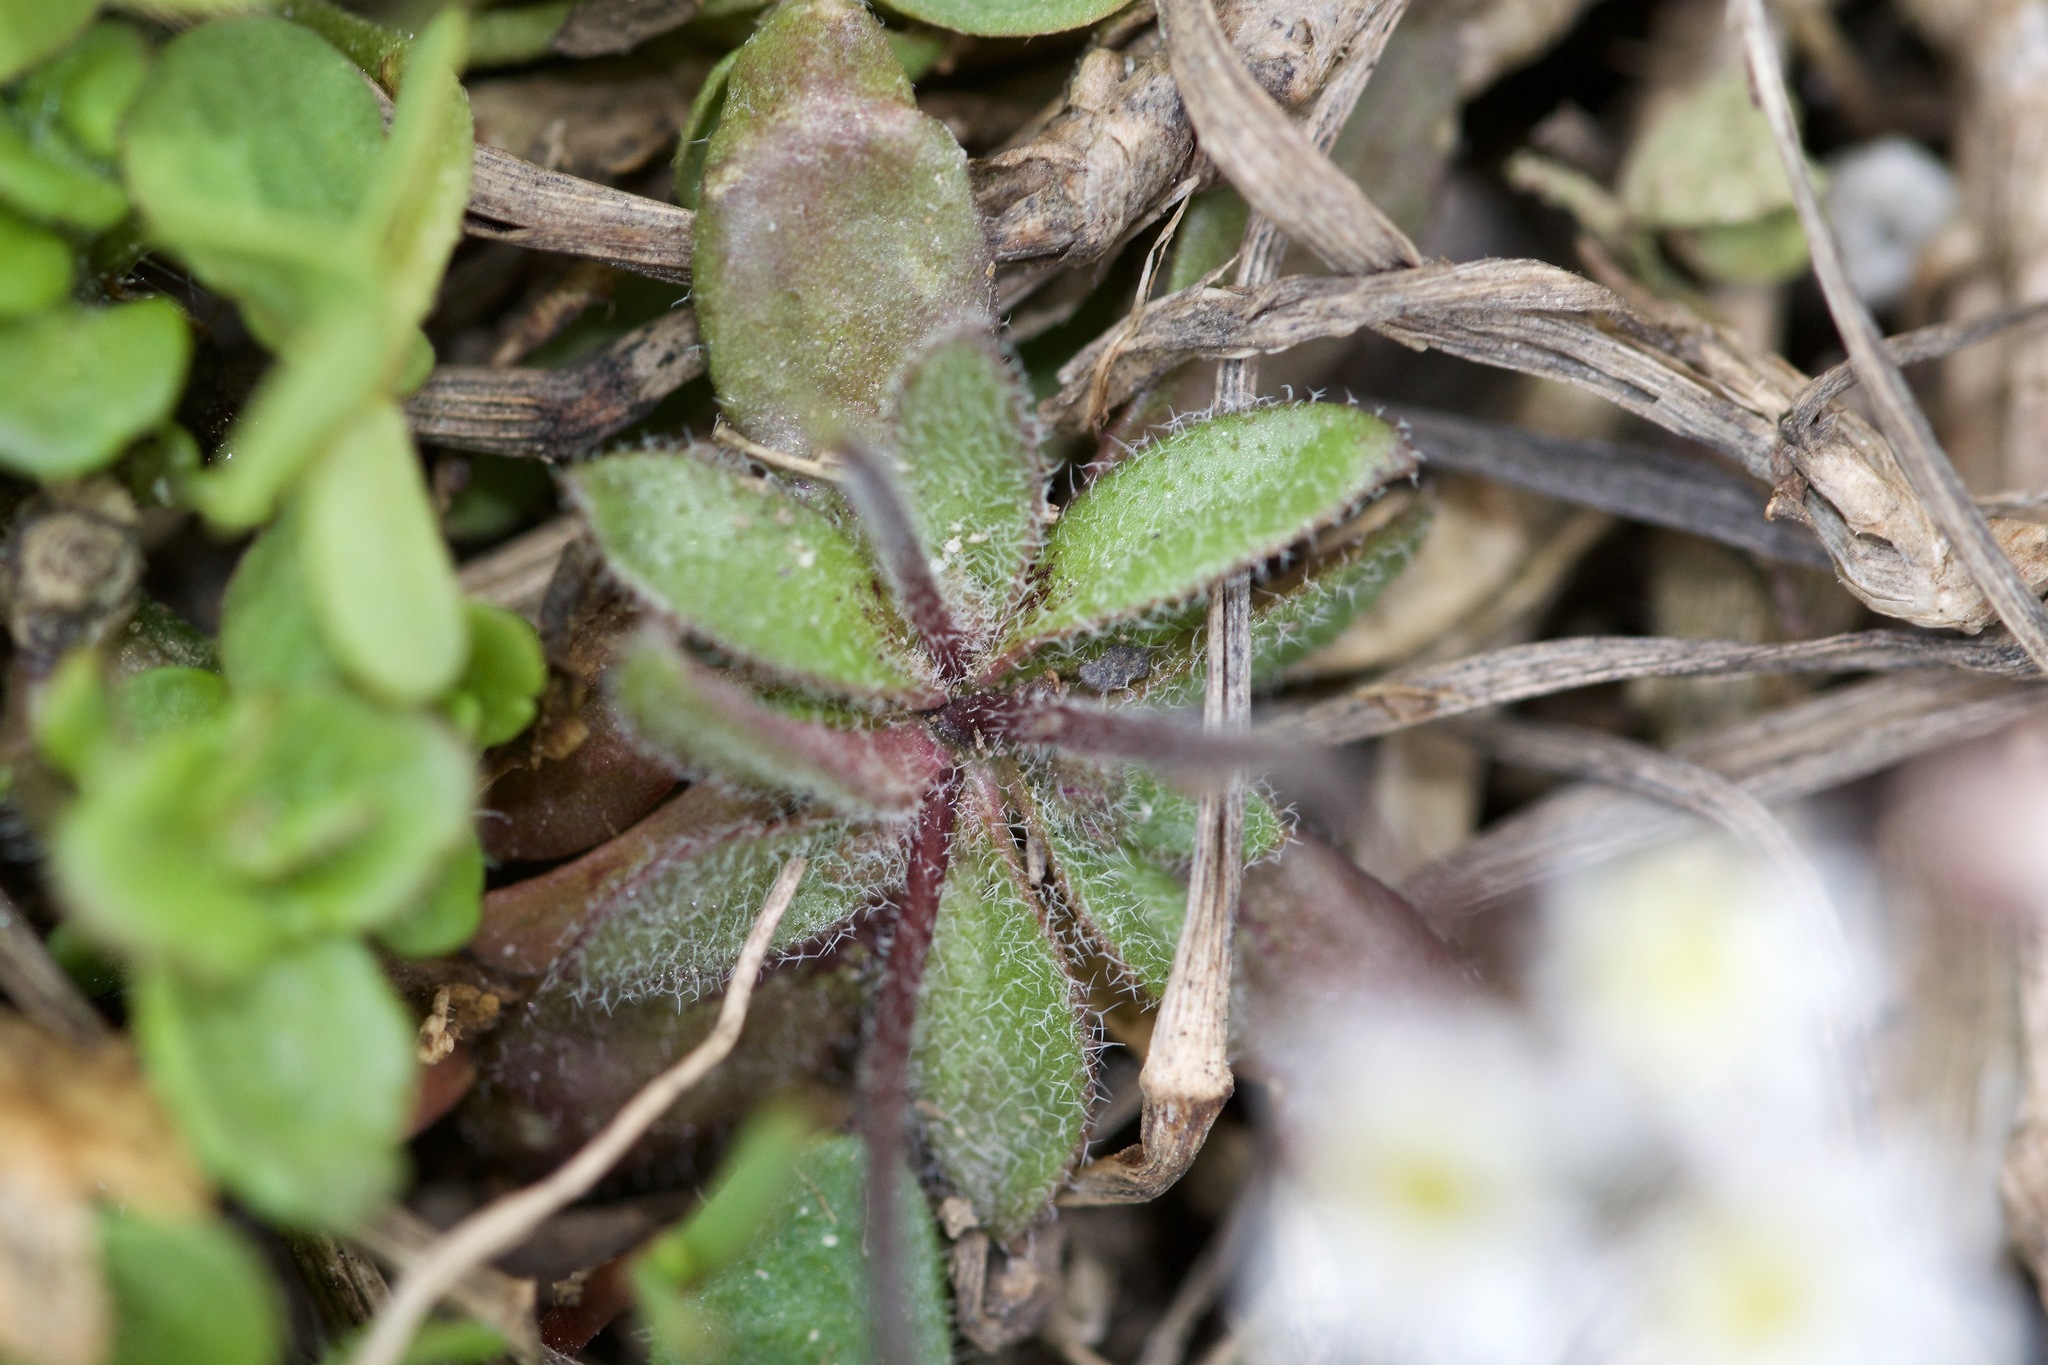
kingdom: Plantae
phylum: Tracheophyta
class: Magnoliopsida
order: Brassicales
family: Brassicaceae
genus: Draba
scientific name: Draba verna
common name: Spring draba
